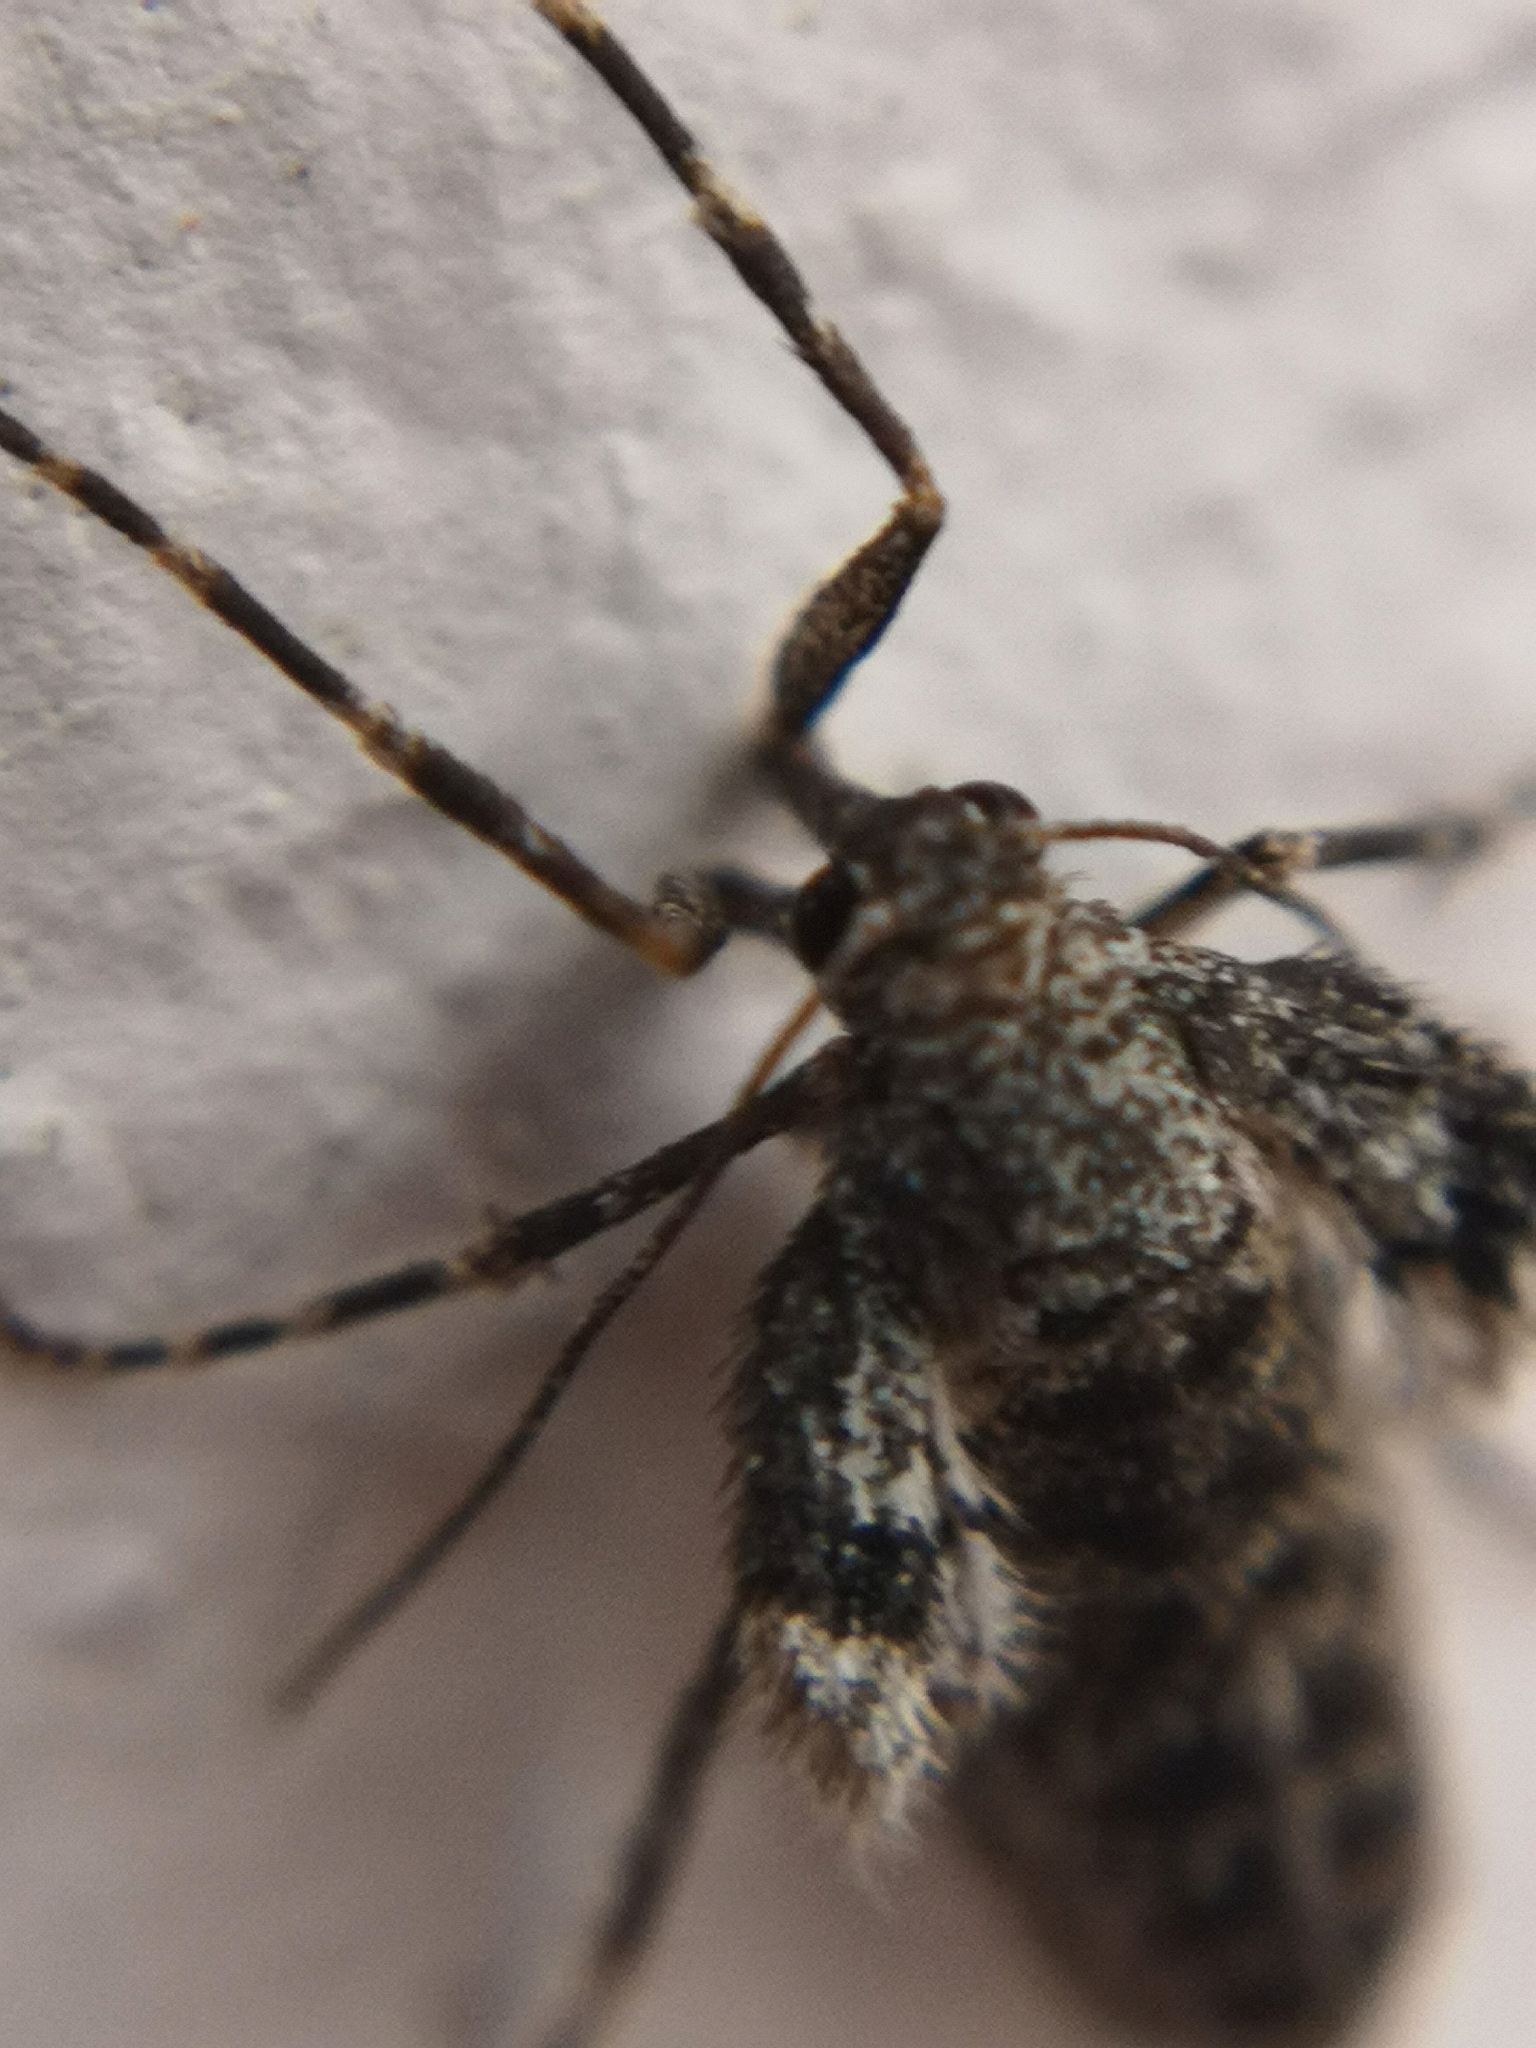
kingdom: Animalia
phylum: Arthropoda
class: Insecta
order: Lepidoptera
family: Geometridae
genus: Operophtera
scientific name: Operophtera brumata
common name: Winter moth
